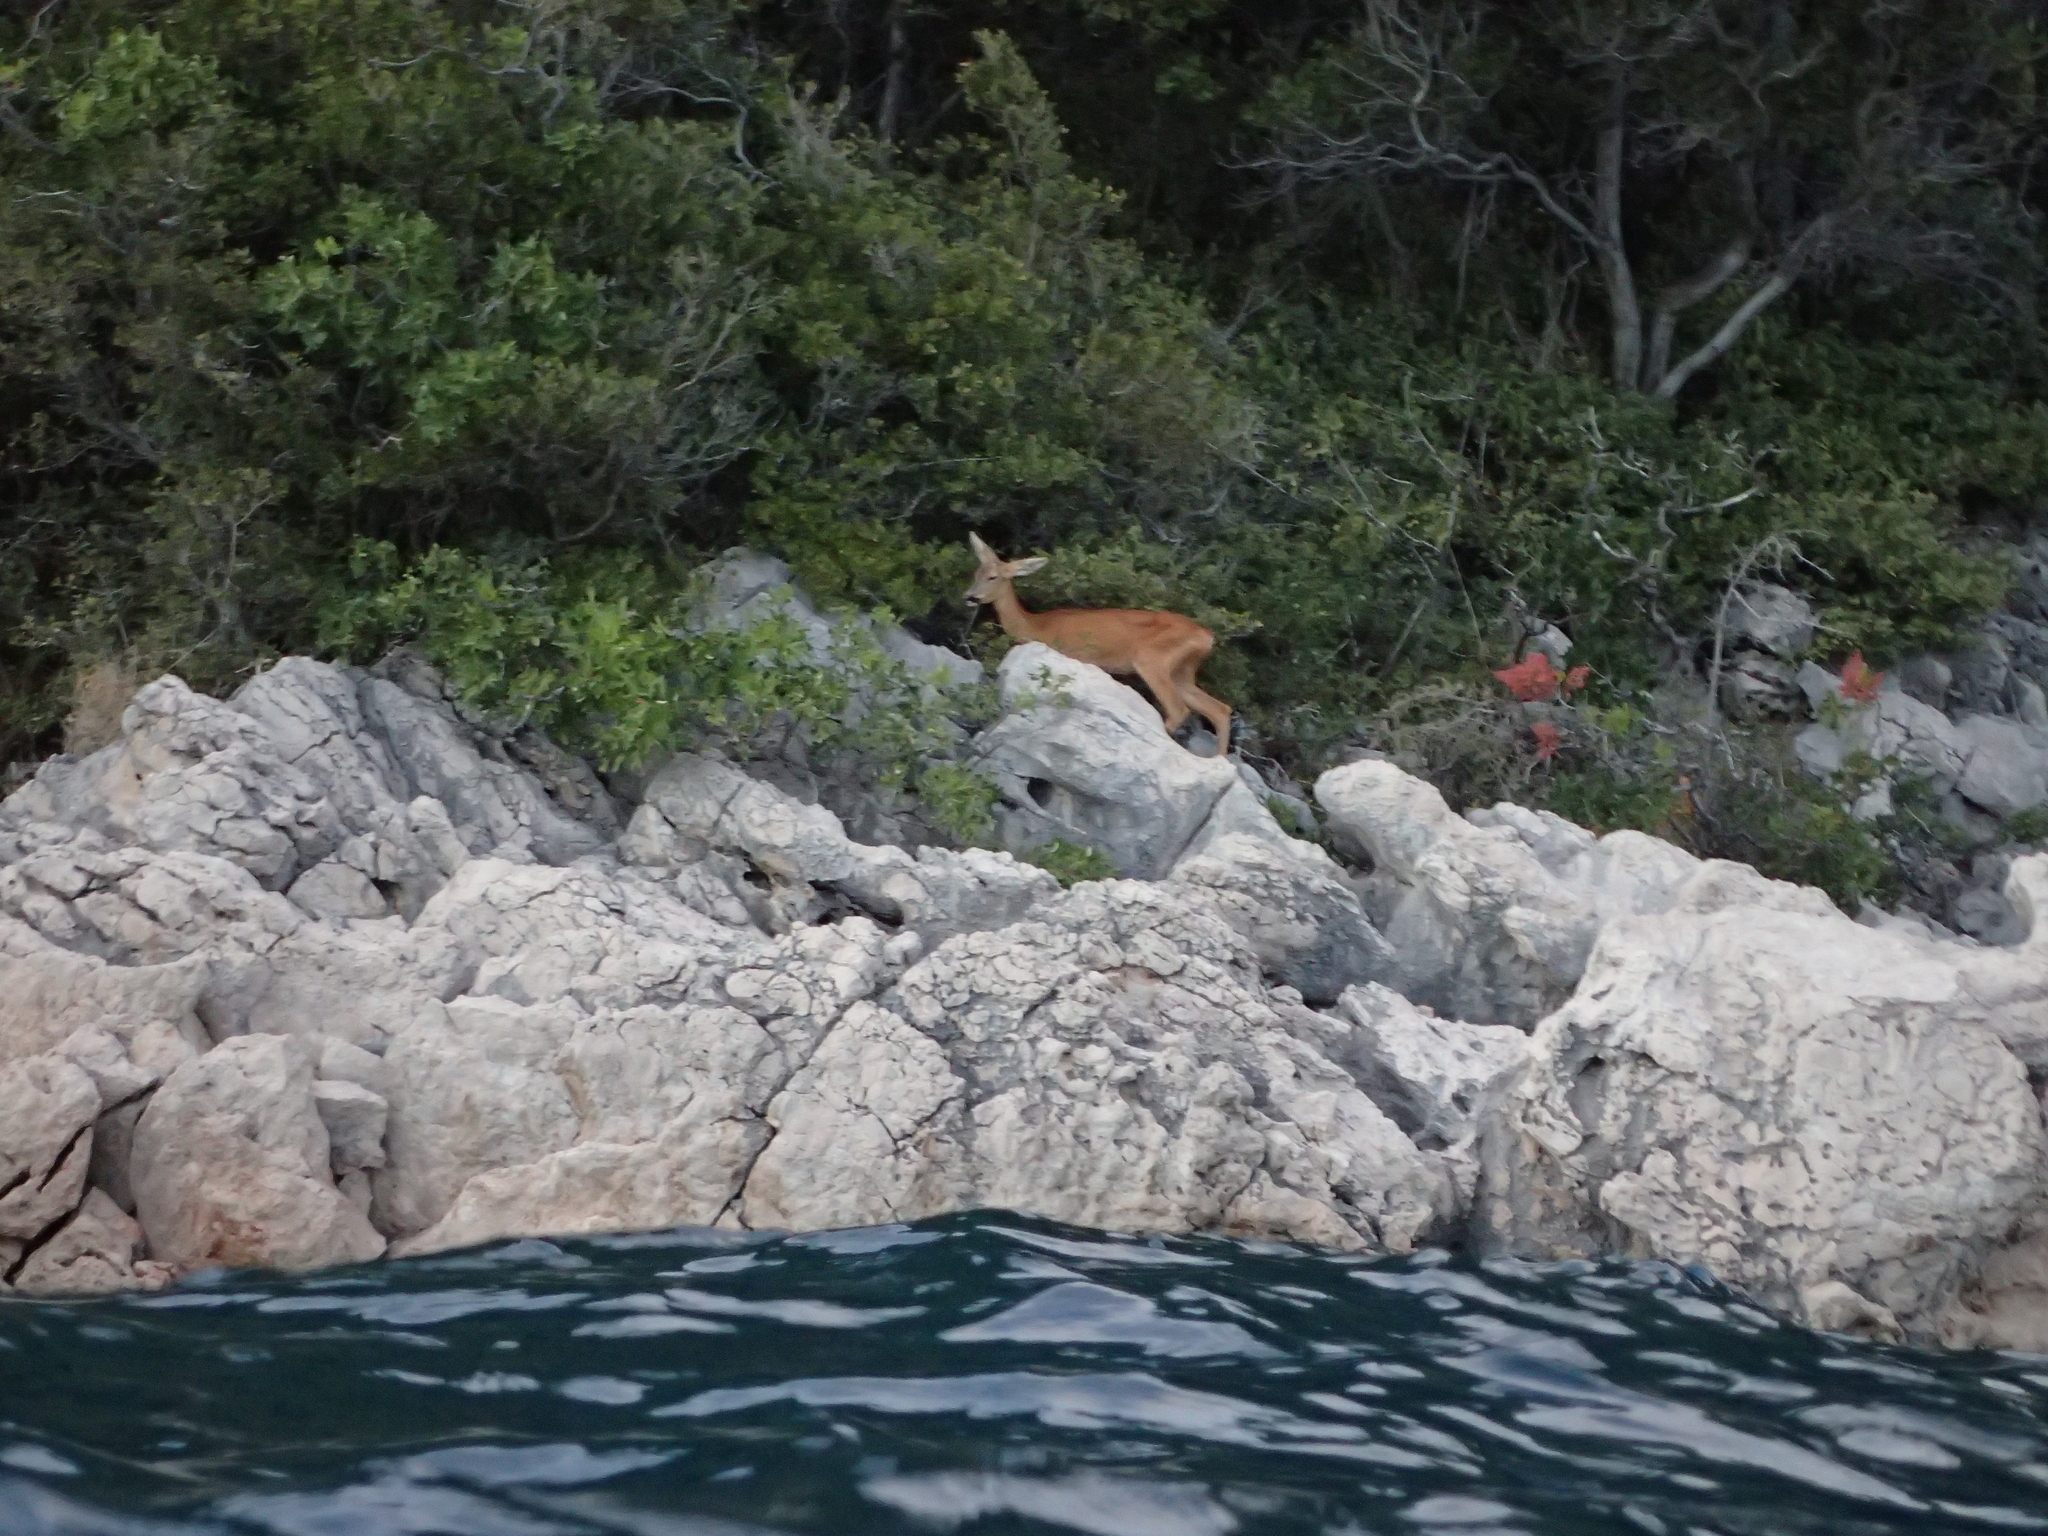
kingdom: Animalia
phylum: Chordata
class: Mammalia
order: Artiodactyla
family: Cervidae
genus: Capreolus
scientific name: Capreolus capreolus
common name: Western roe deer
